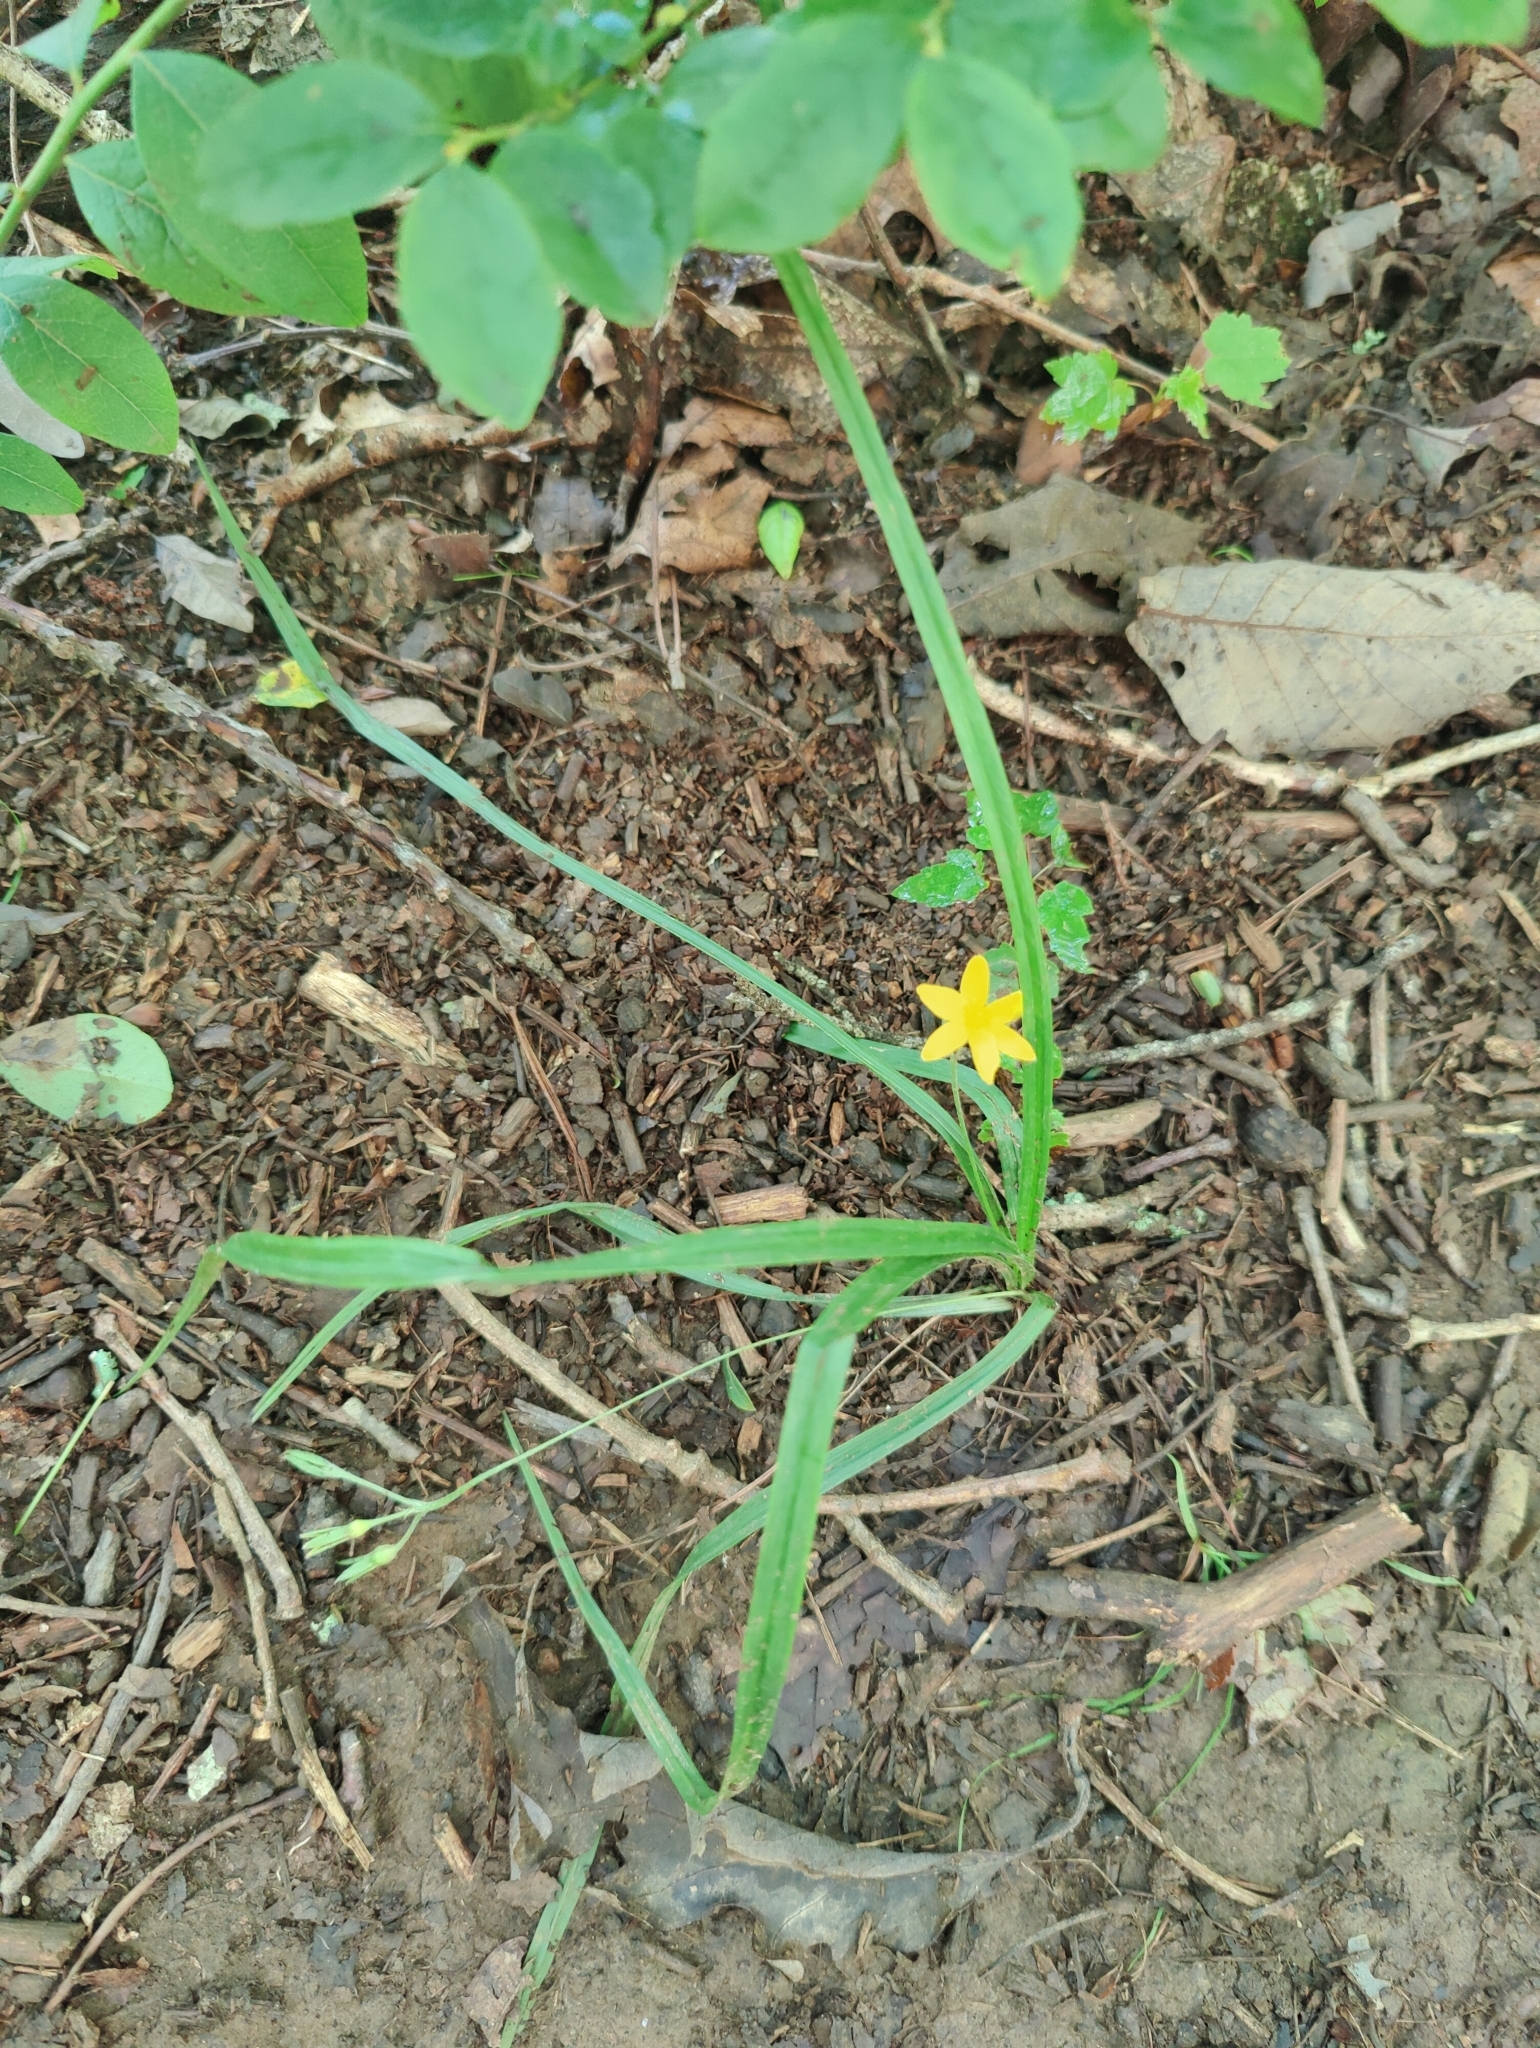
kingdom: Plantae
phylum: Tracheophyta
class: Liliopsida
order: Asparagales
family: Hypoxidaceae
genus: Hypoxis
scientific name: Hypoxis hirsuta
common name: Common goldstar
